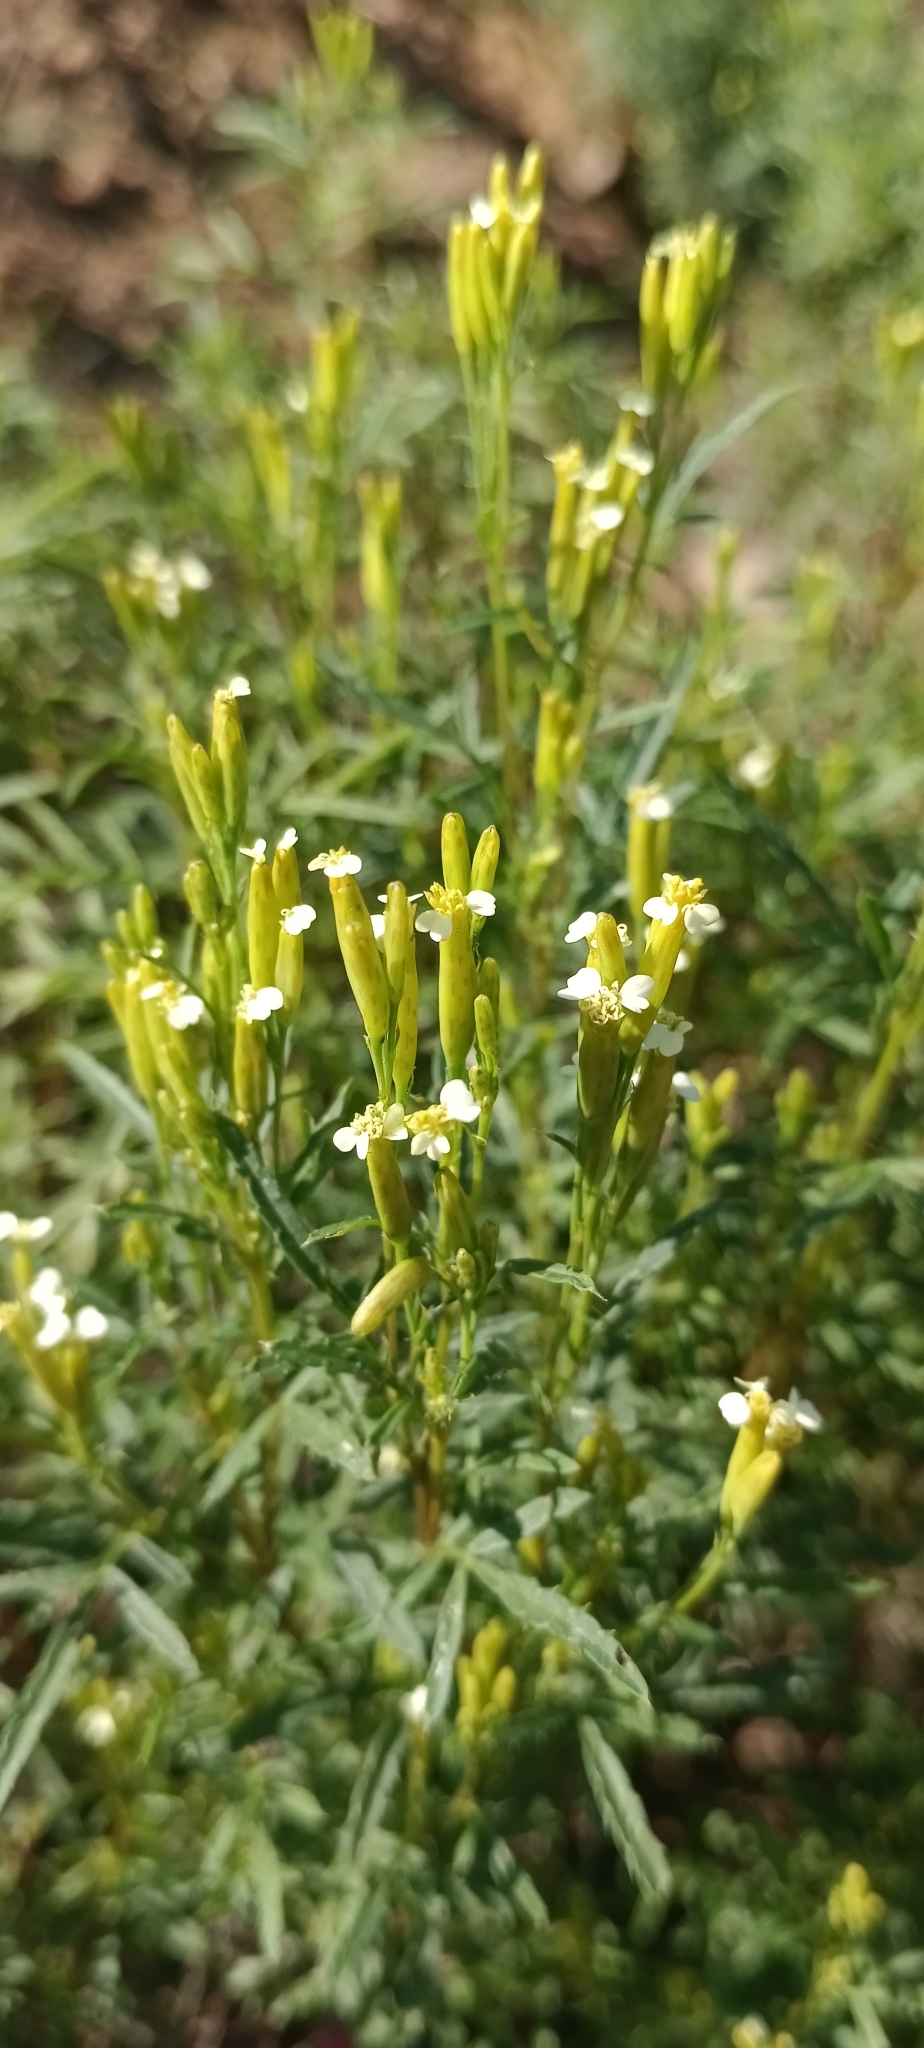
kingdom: Plantae
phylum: Tracheophyta
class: Magnoliopsida
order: Asterales
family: Asteraceae
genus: Tagetes
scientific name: Tagetes minuta
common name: Muster john henry
